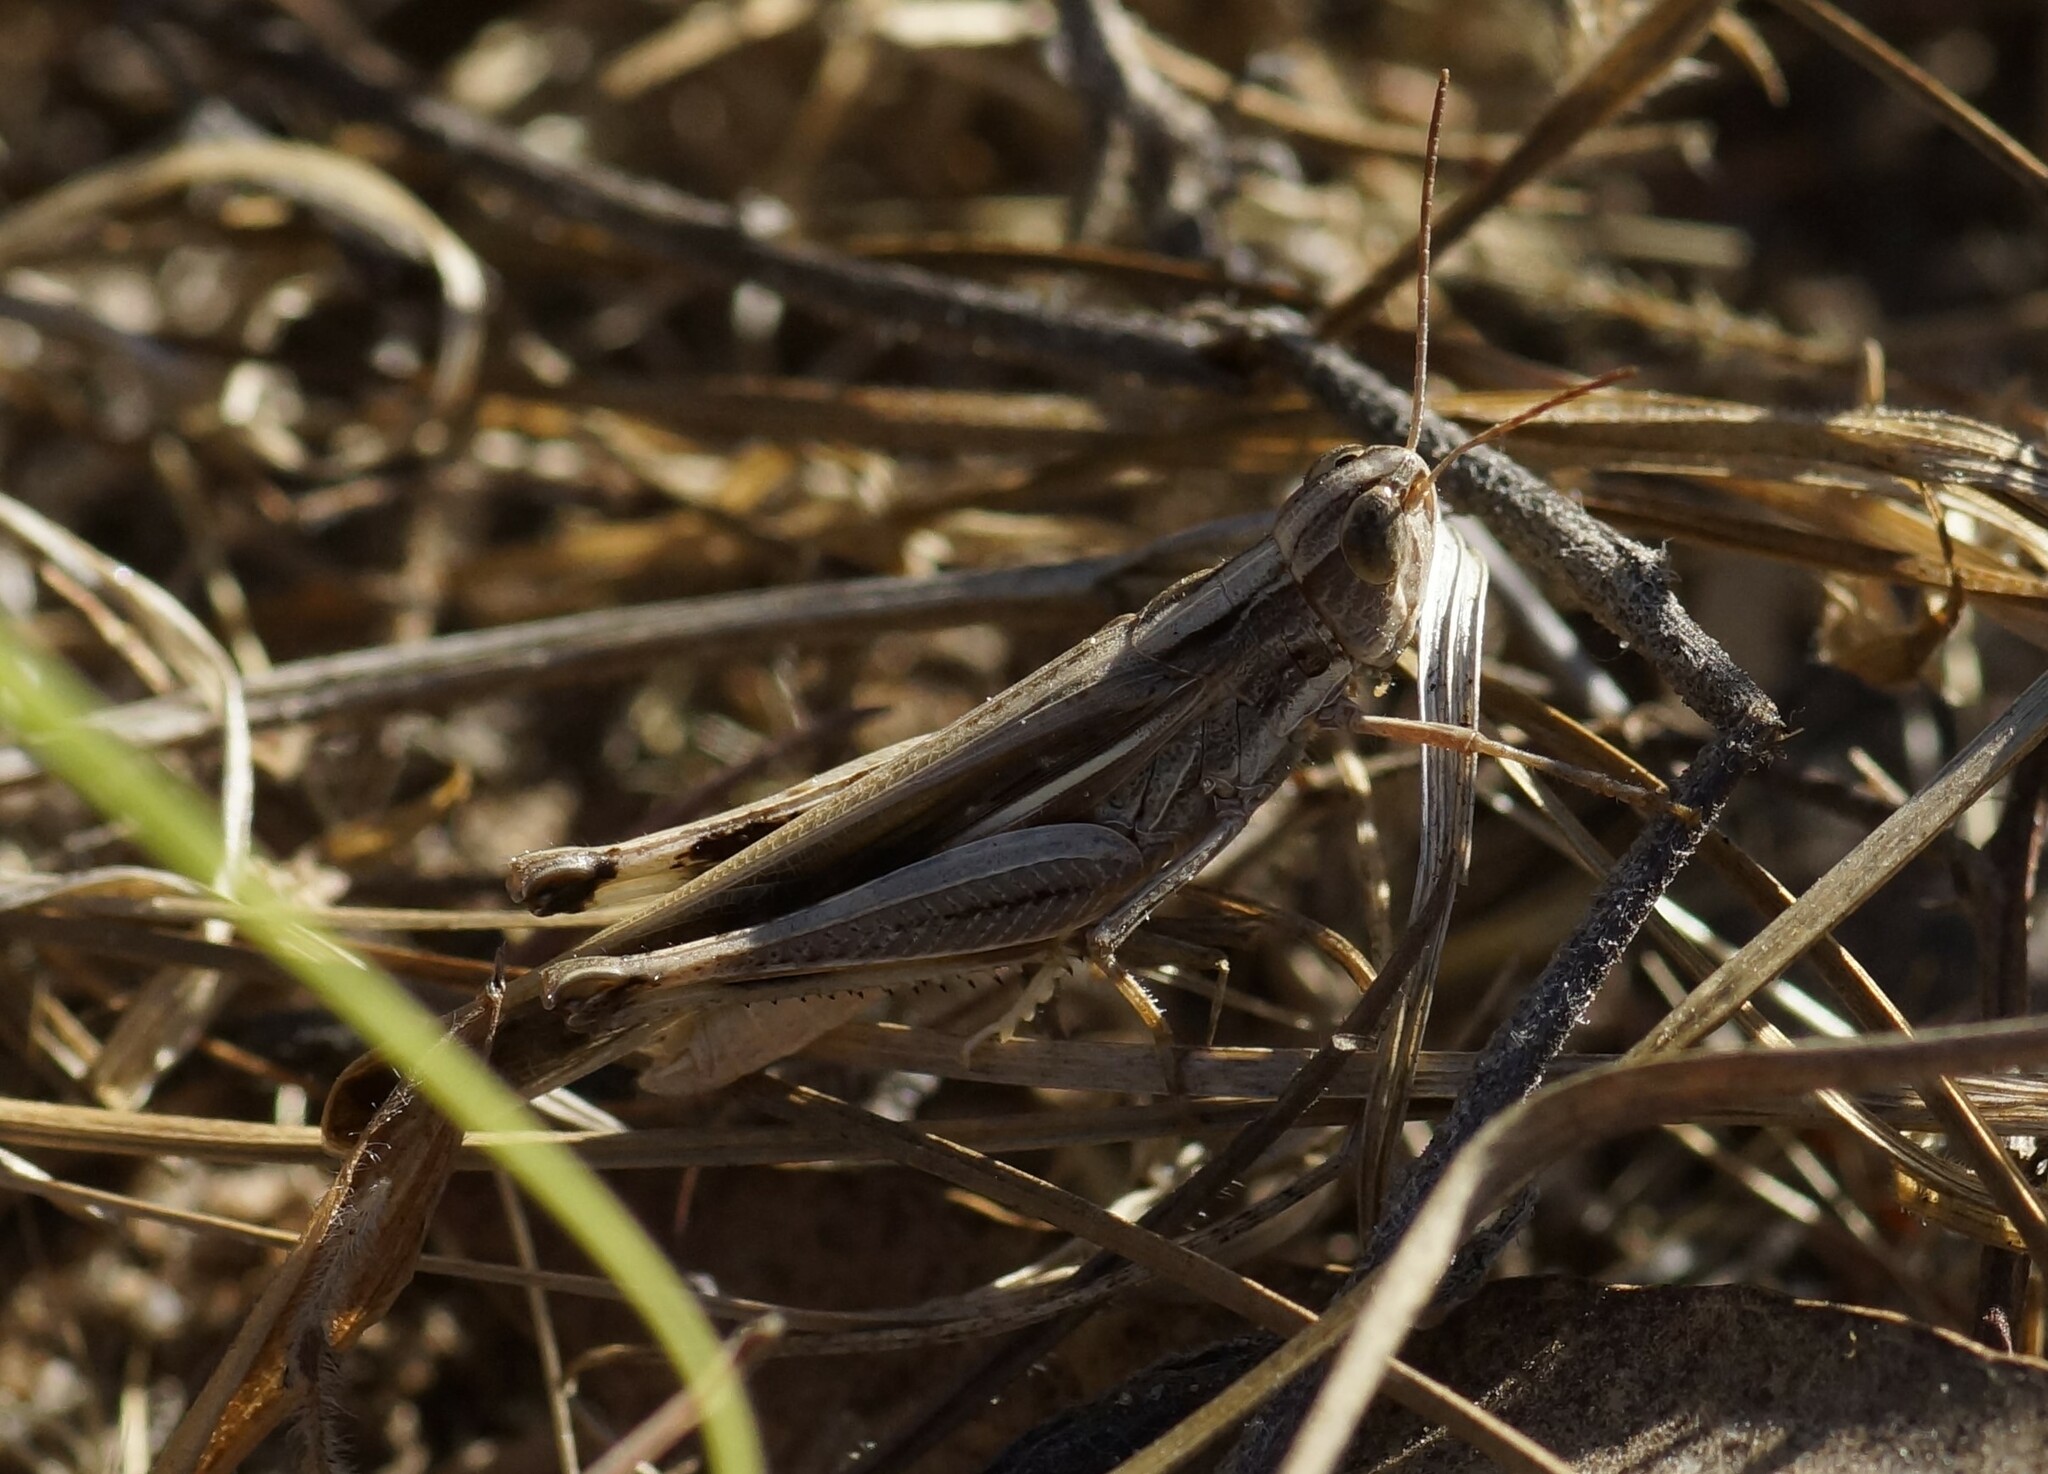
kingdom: Animalia
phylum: Arthropoda
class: Insecta
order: Orthoptera
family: Acrididae
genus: Aiolopus
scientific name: Aiolopus thalassinus
